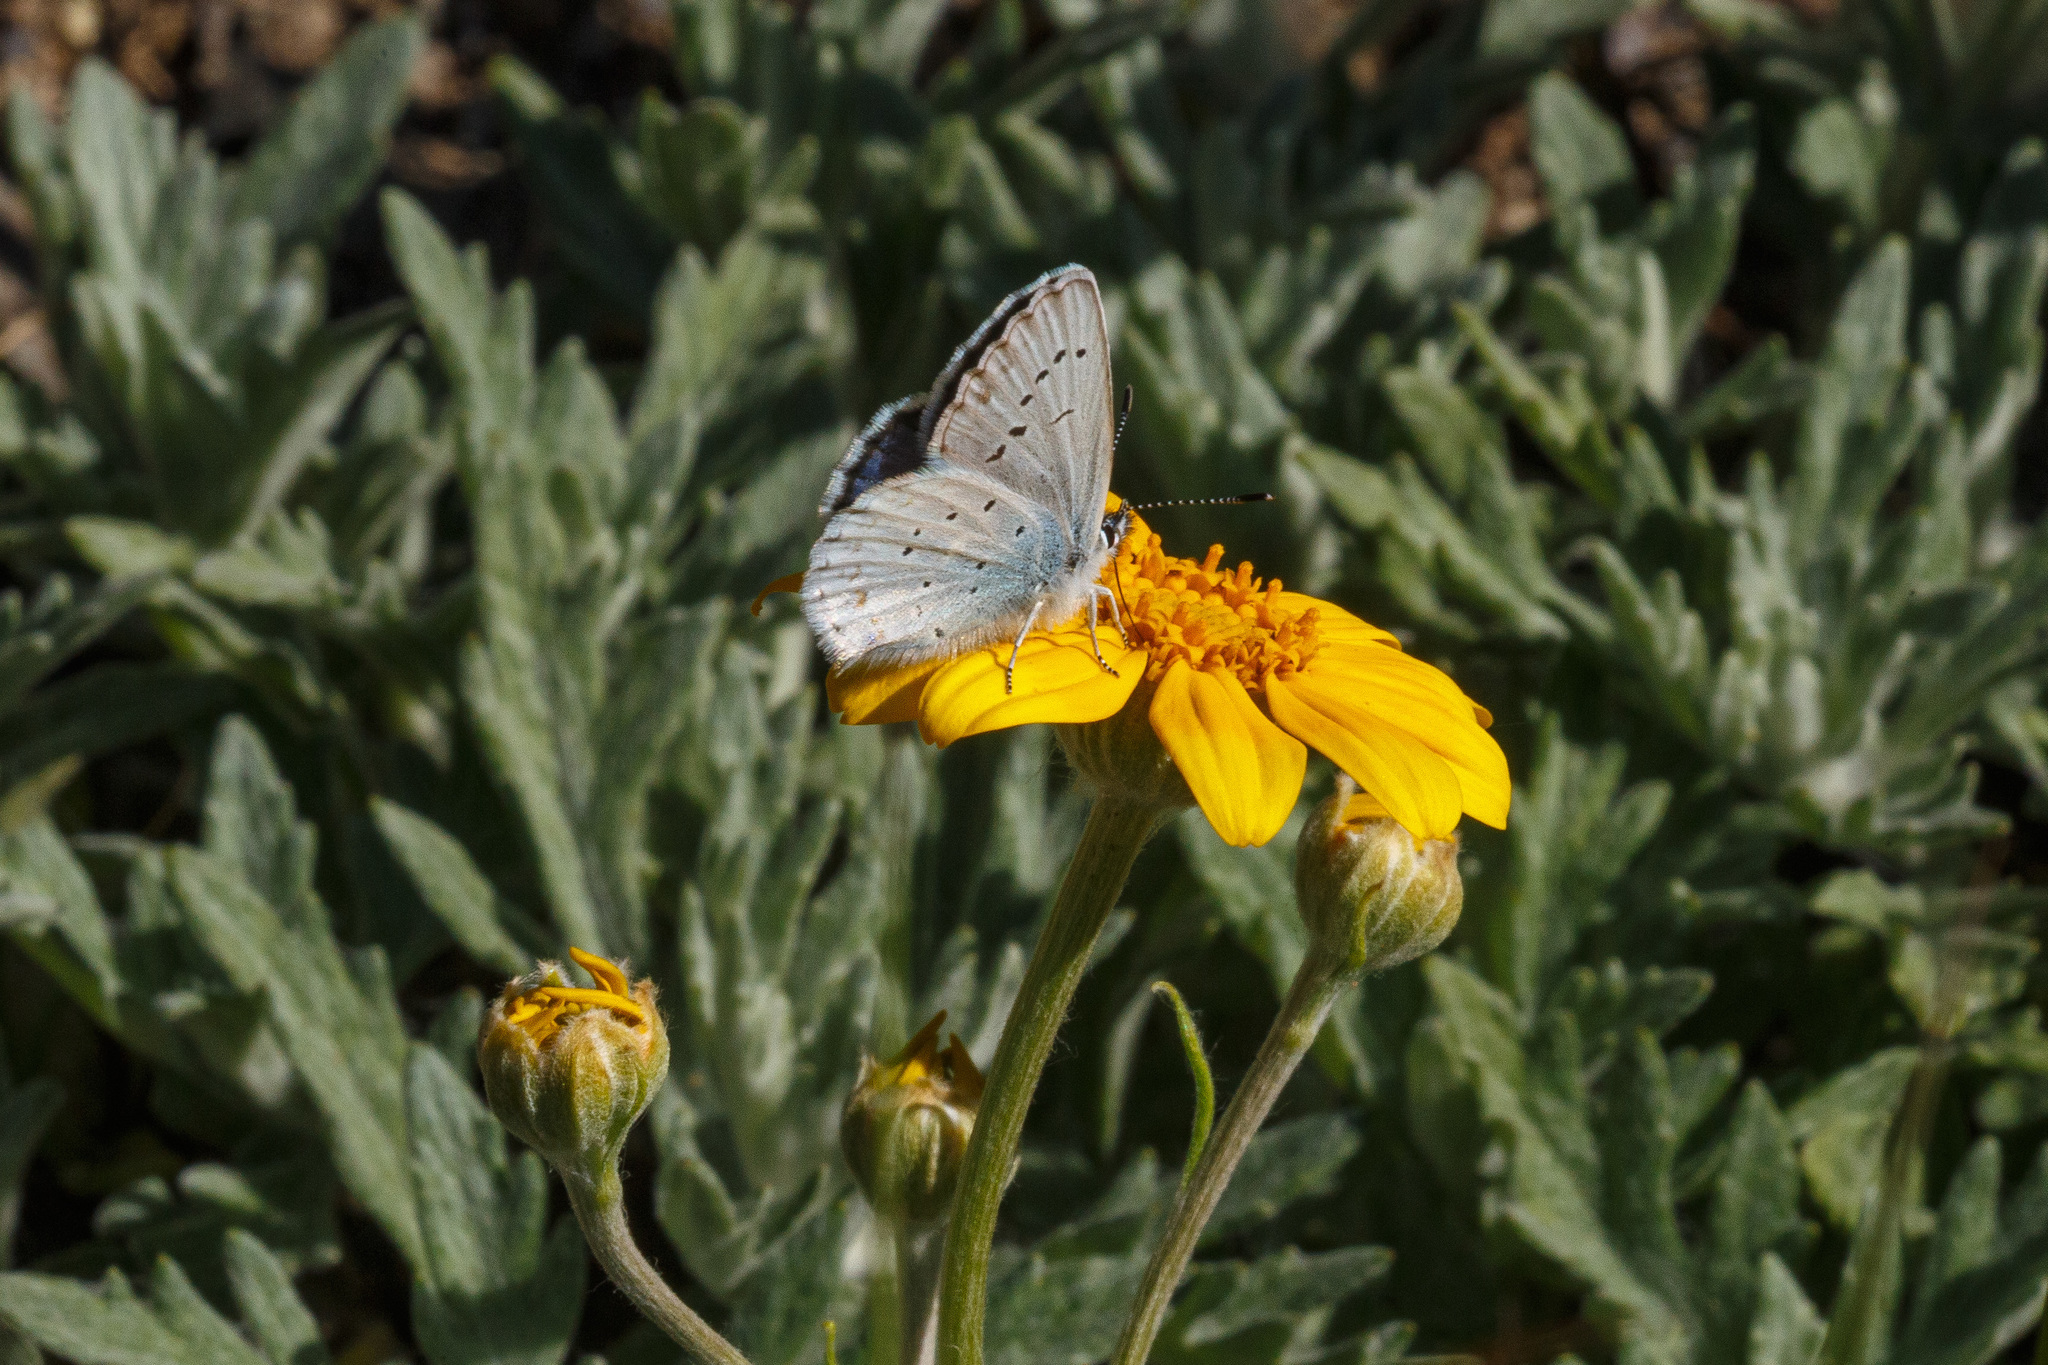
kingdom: Animalia
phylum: Arthropoda
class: Insecta
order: Lepidoptera
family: Lycaenidae
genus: Lycaeides
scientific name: Lycaeides anna
